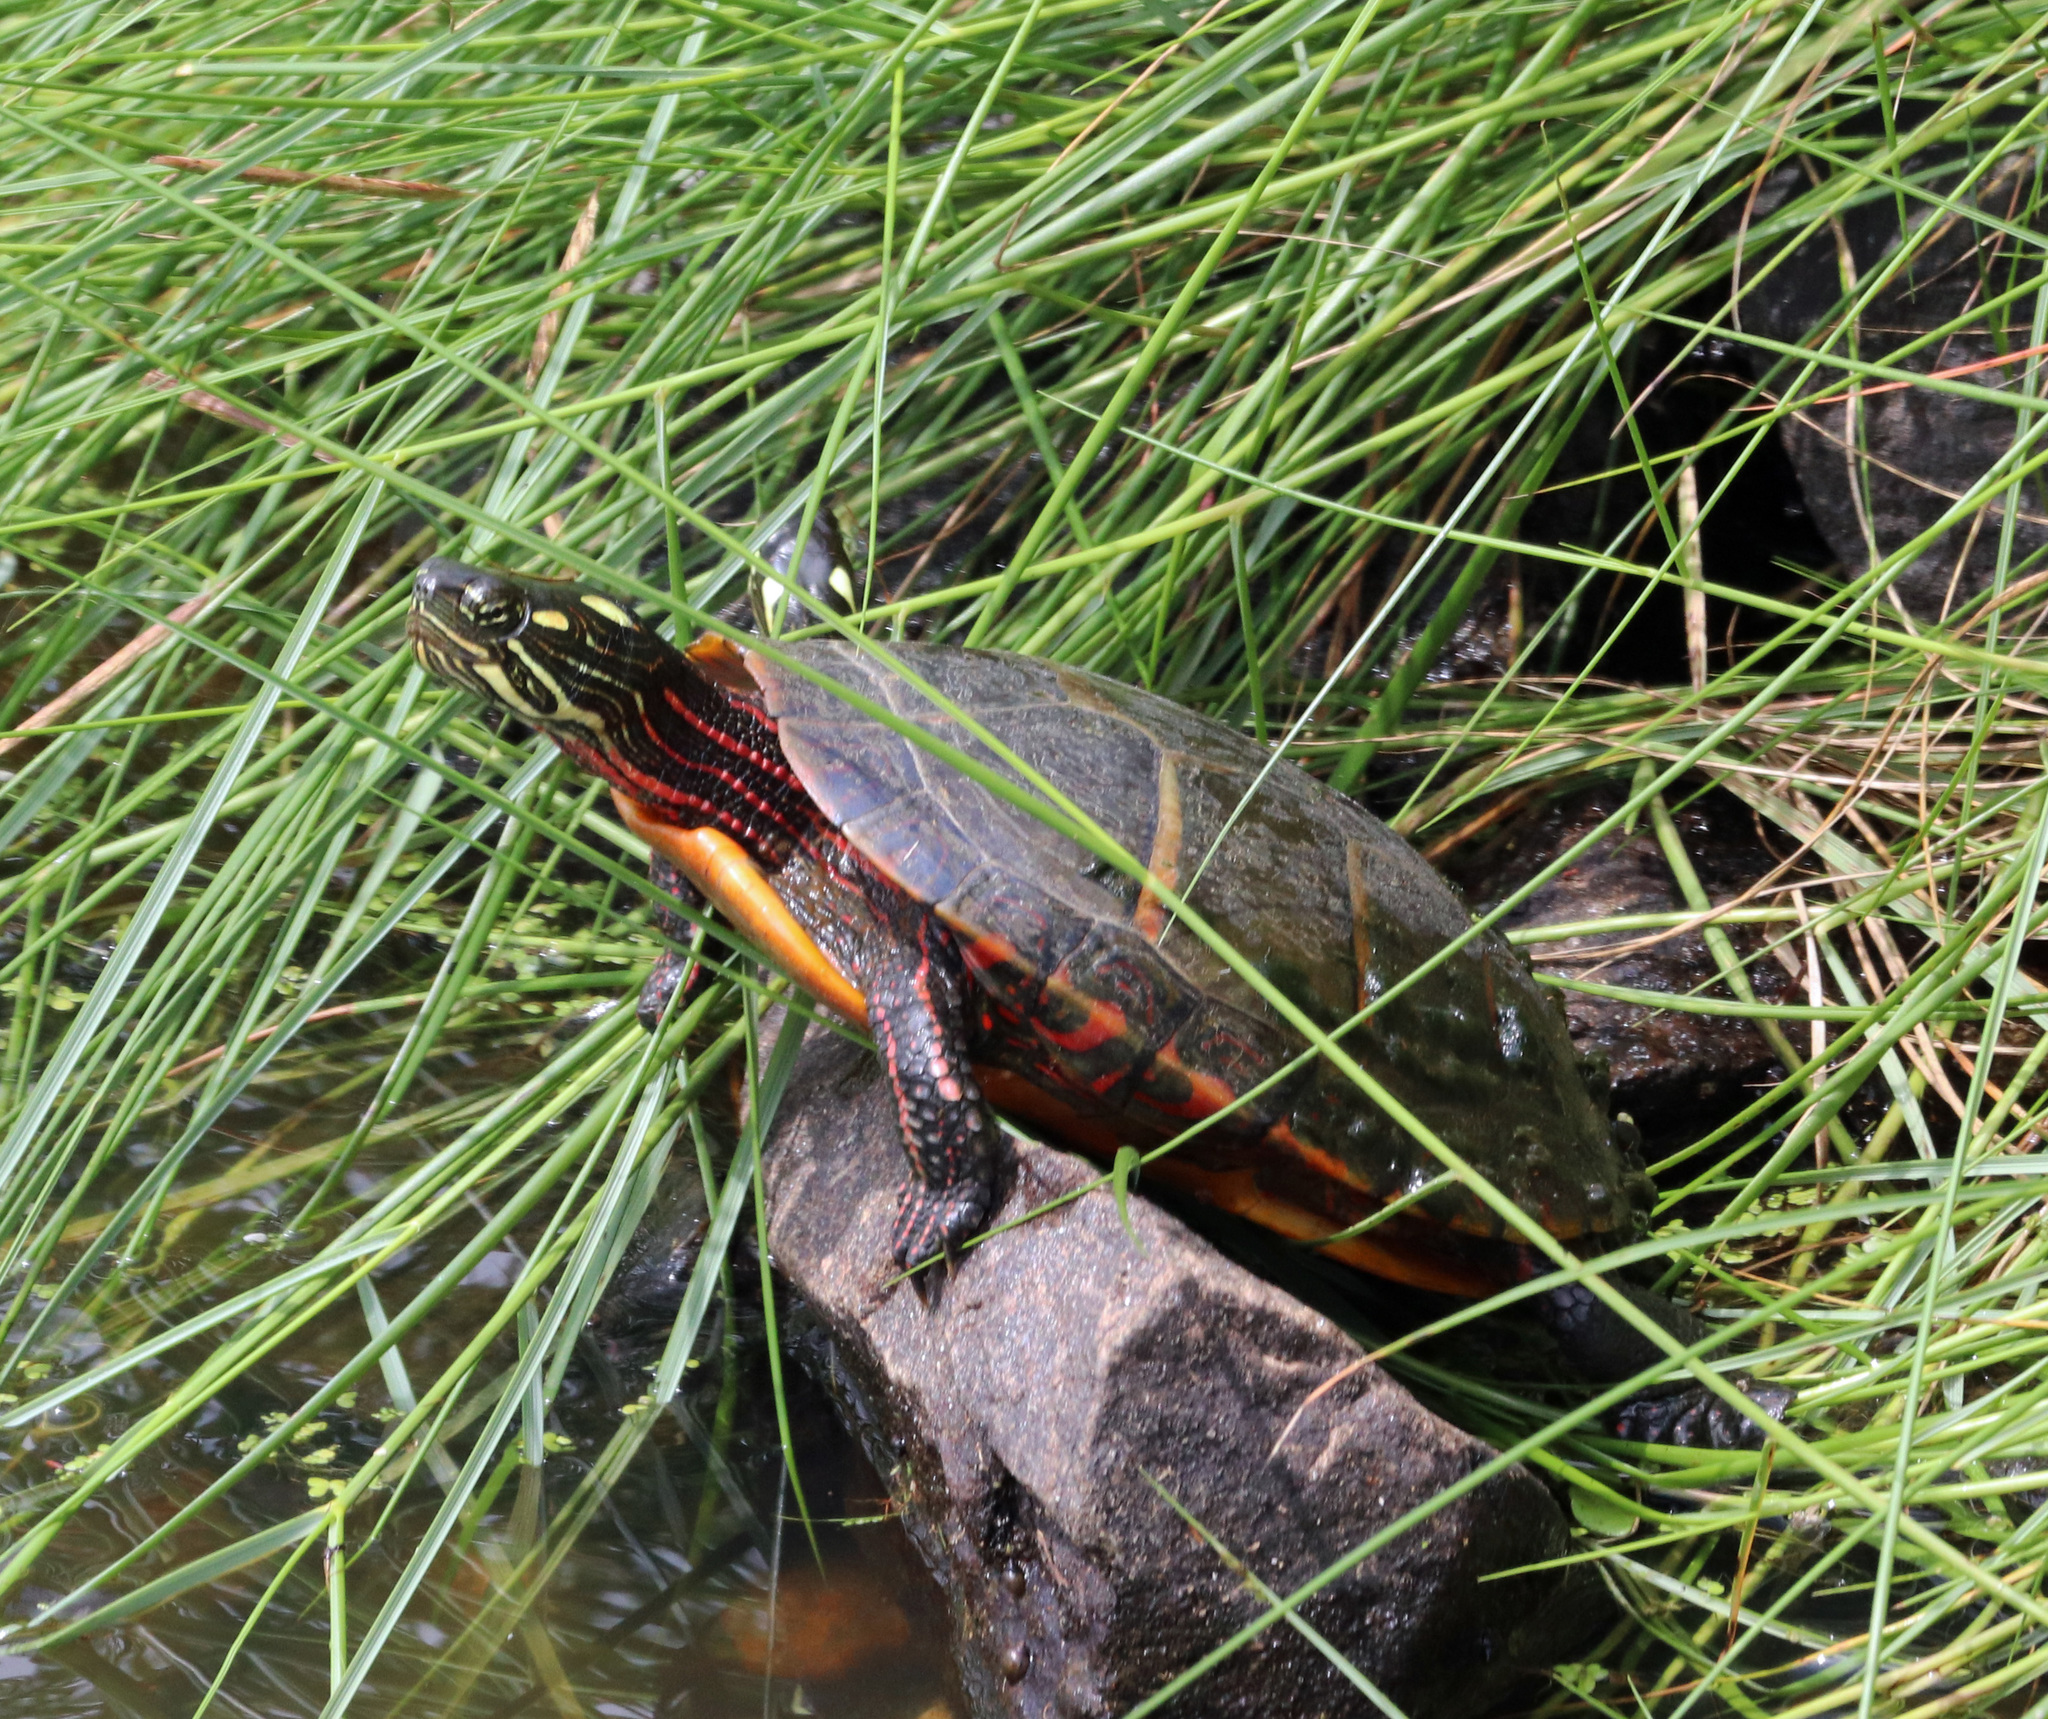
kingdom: Animalia
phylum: Chordata
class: Testudines
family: Emydidae
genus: Chrysemys
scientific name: Chrysemys picta
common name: Painted turtle
